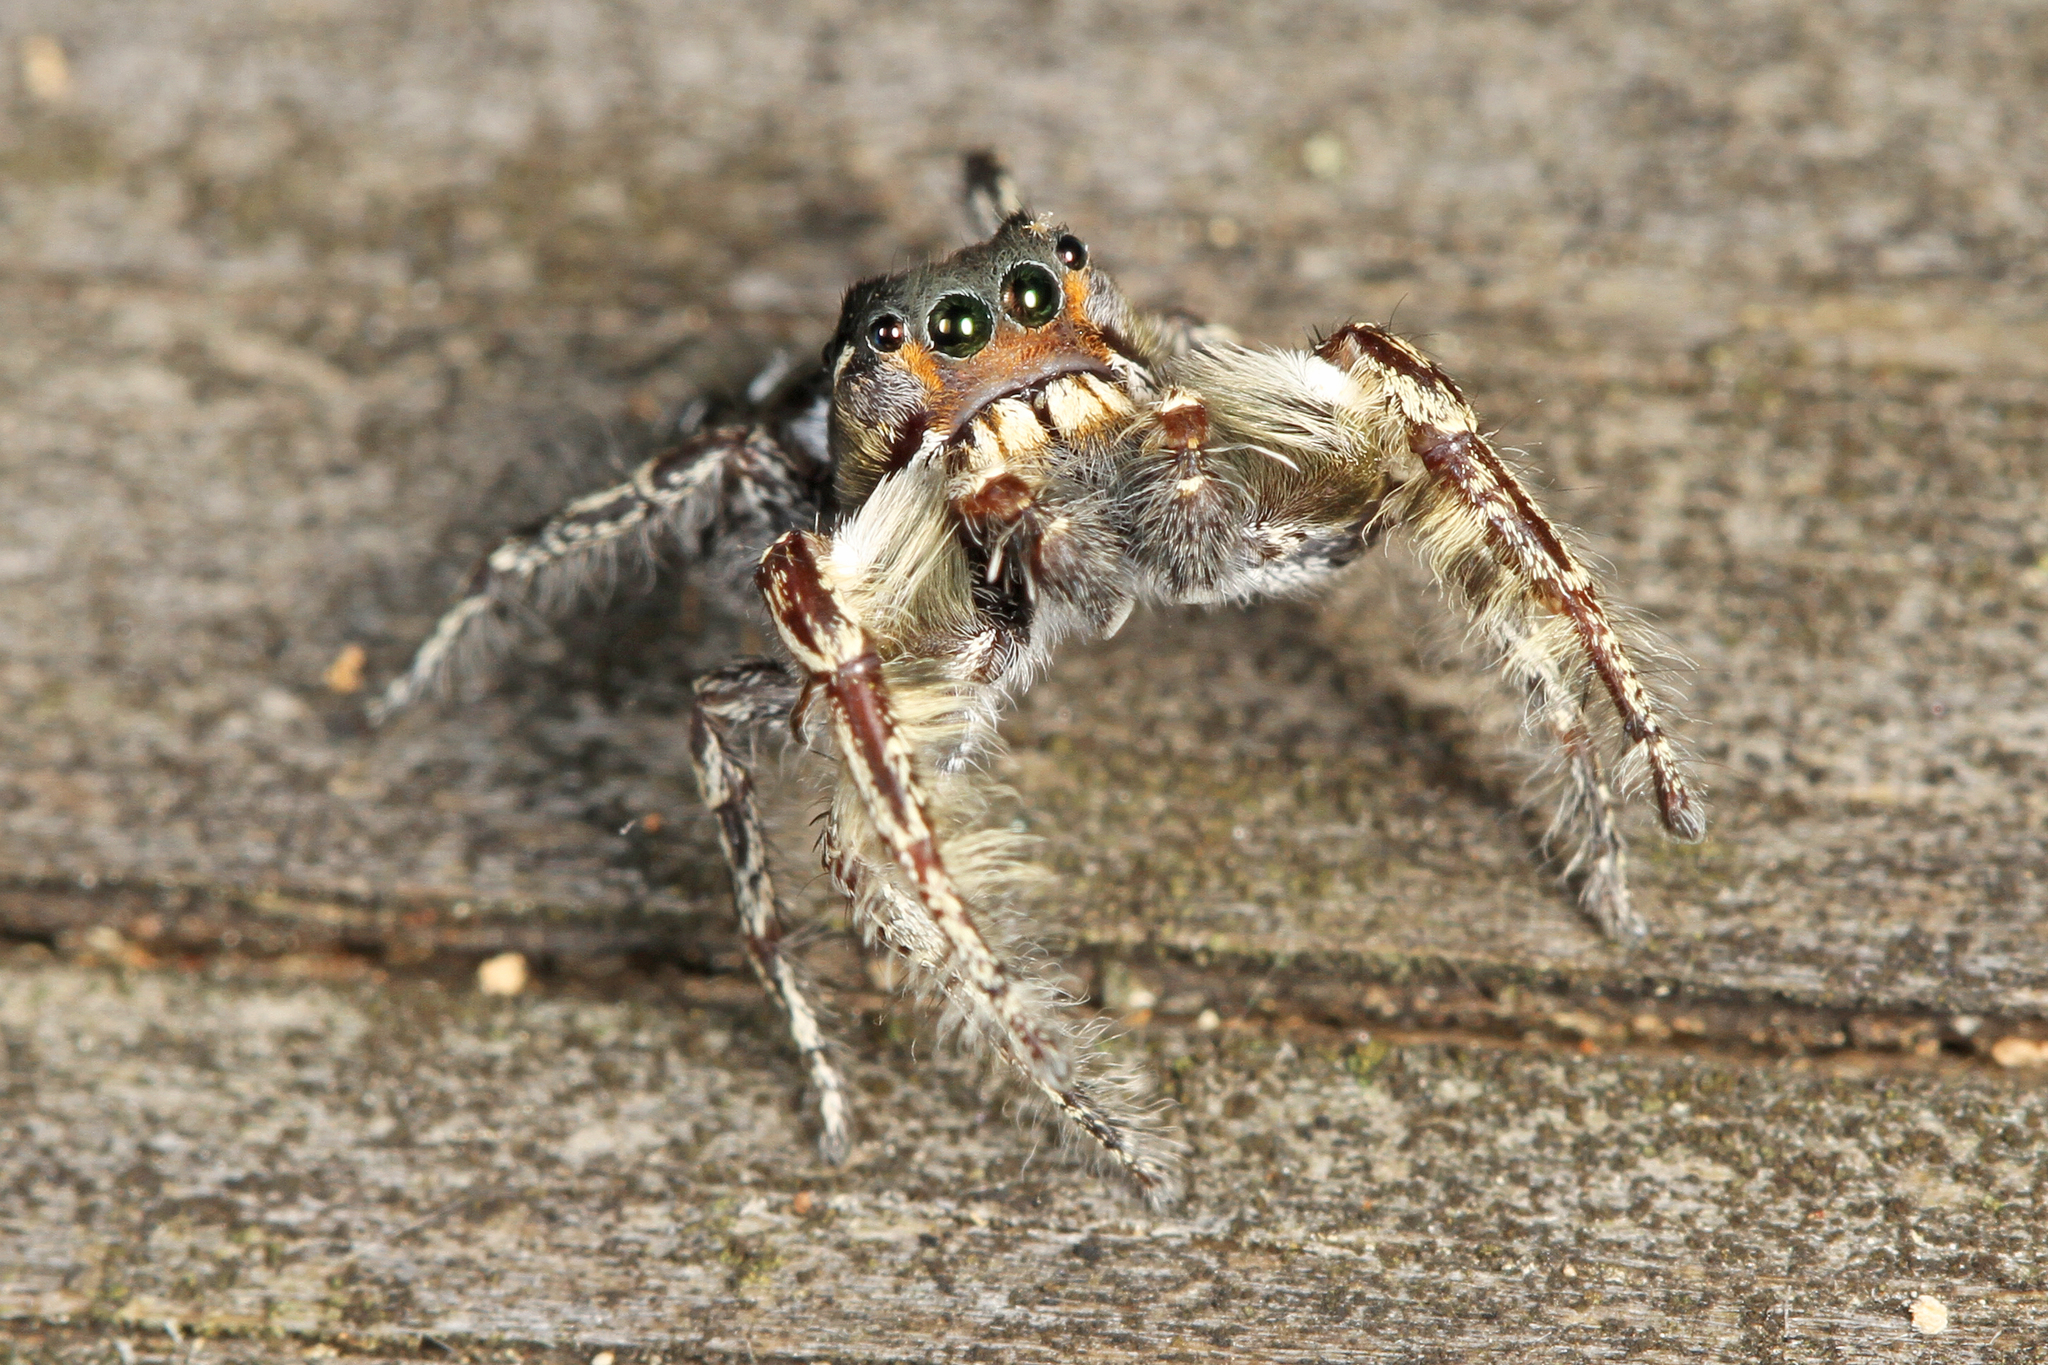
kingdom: Animalia
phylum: Arthropoda
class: Arachnida
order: Araneae
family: Salticidae
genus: Phidippus
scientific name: Phidippus putnami
